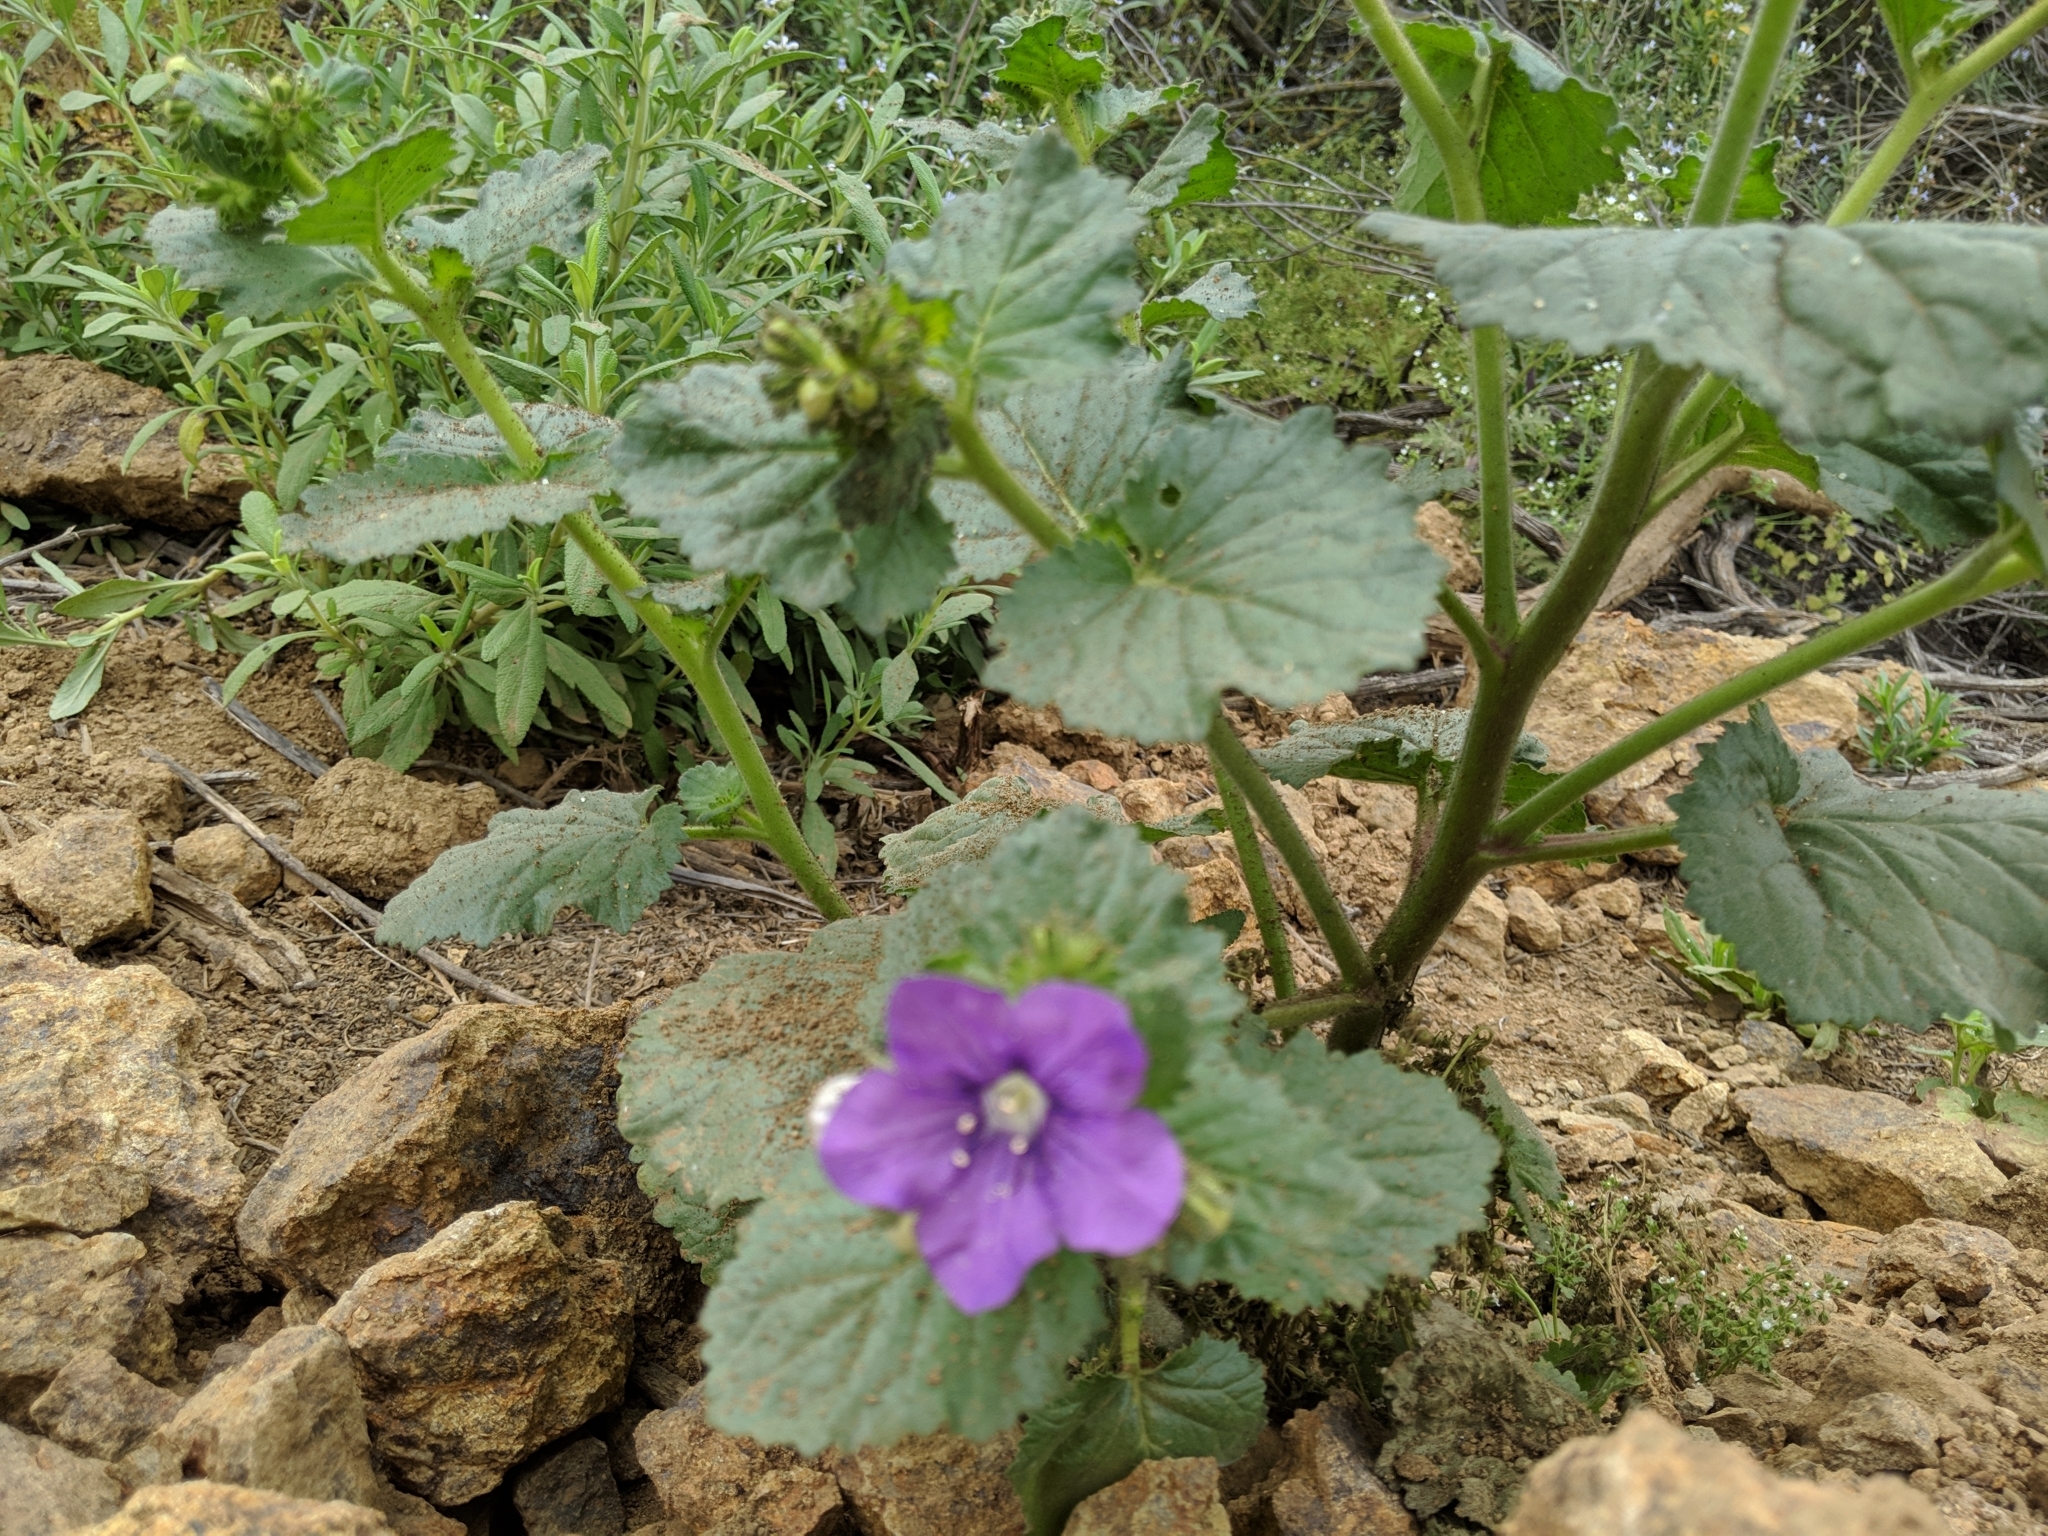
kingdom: Plantae
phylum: Tracheophyta
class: Magnoliopsida
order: Boraginales
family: Hydrophyllaceae
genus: Phacelia
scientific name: Phacelia grandiflora
